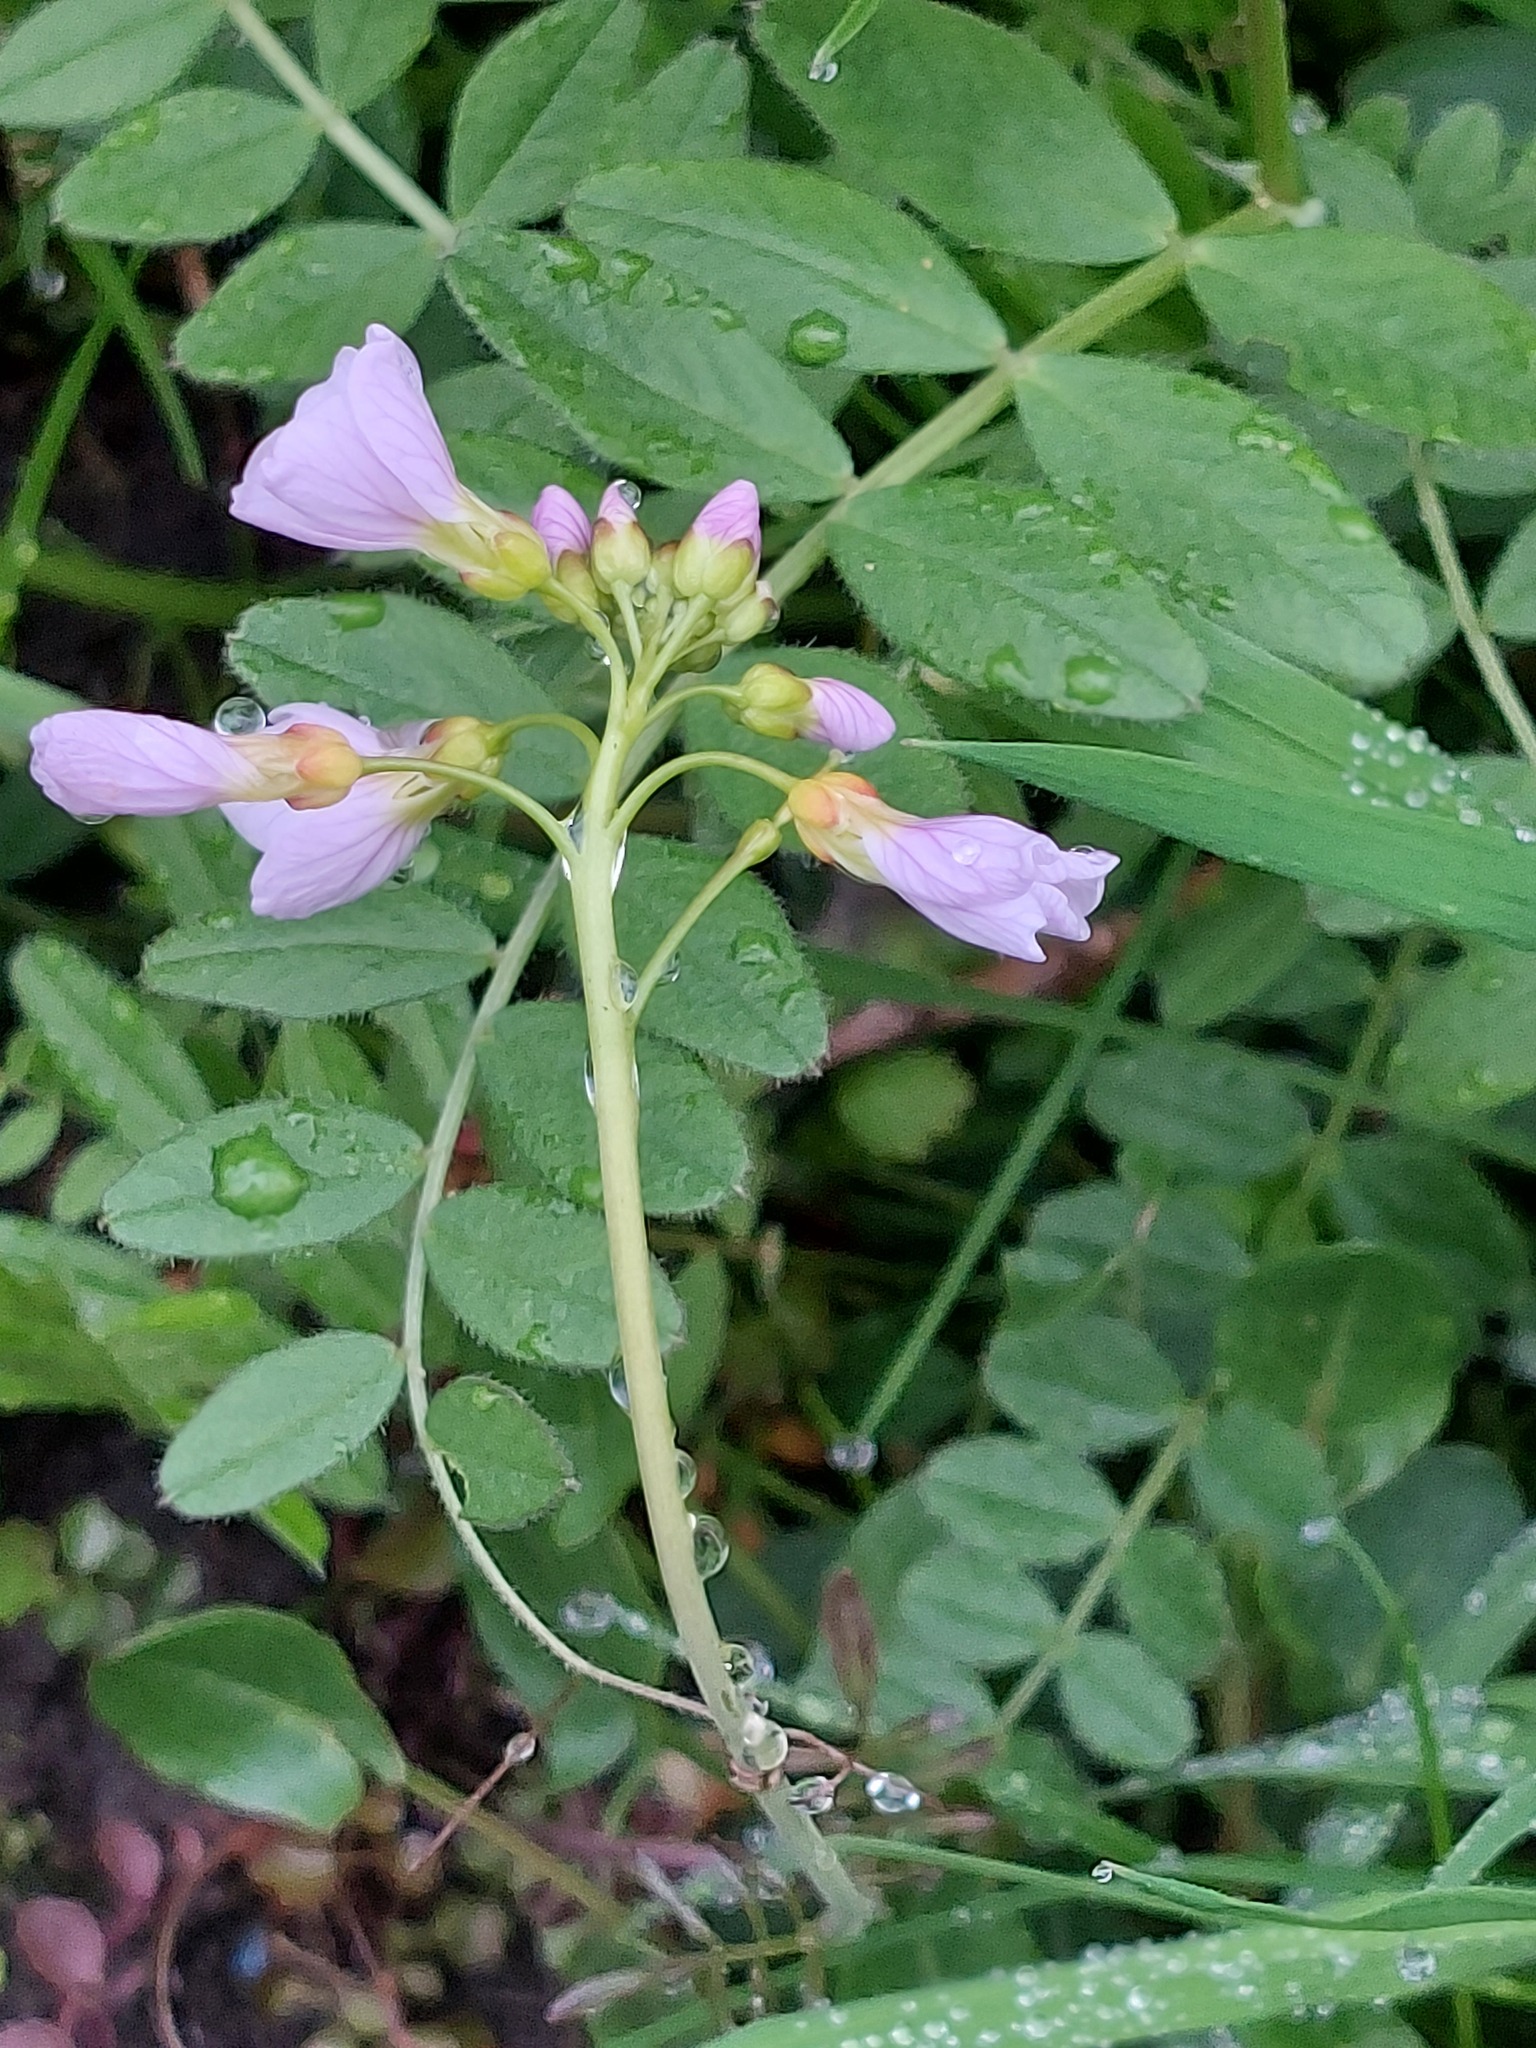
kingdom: Plantae
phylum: Tracheophyta
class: Magnoliopsida
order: Brassicales
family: Brassicaceae
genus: Cardamine
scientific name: Cardamine pratensis
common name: Cuckoo flower
